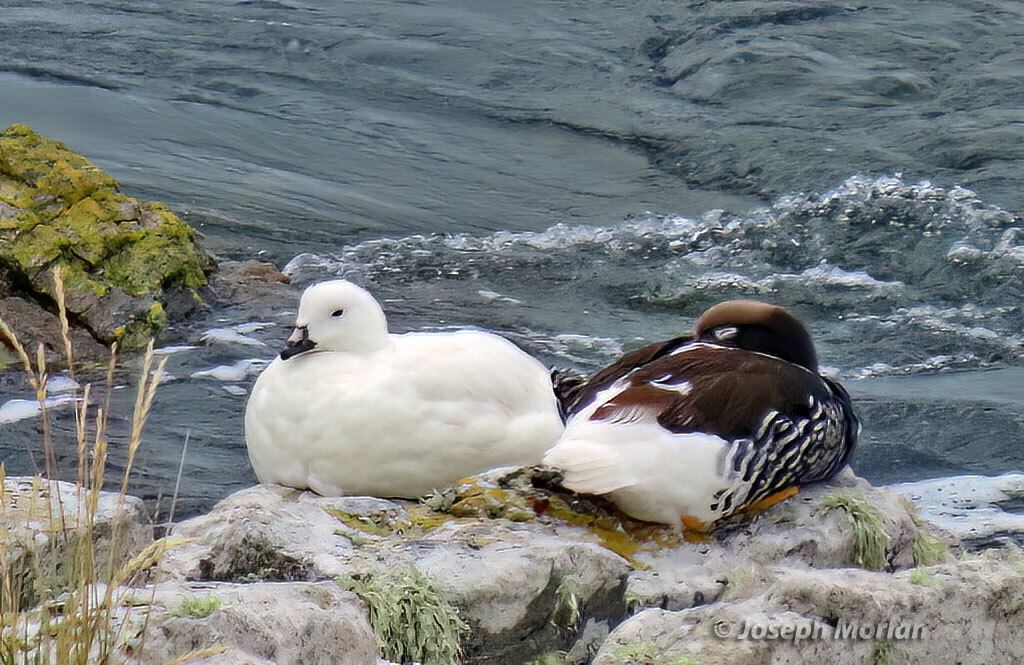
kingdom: Animalia
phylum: Chordata
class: Aves
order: Anseriformes
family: Anatidae
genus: Chloephaga
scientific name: Chloephaga hybrida
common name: Kelp goose
